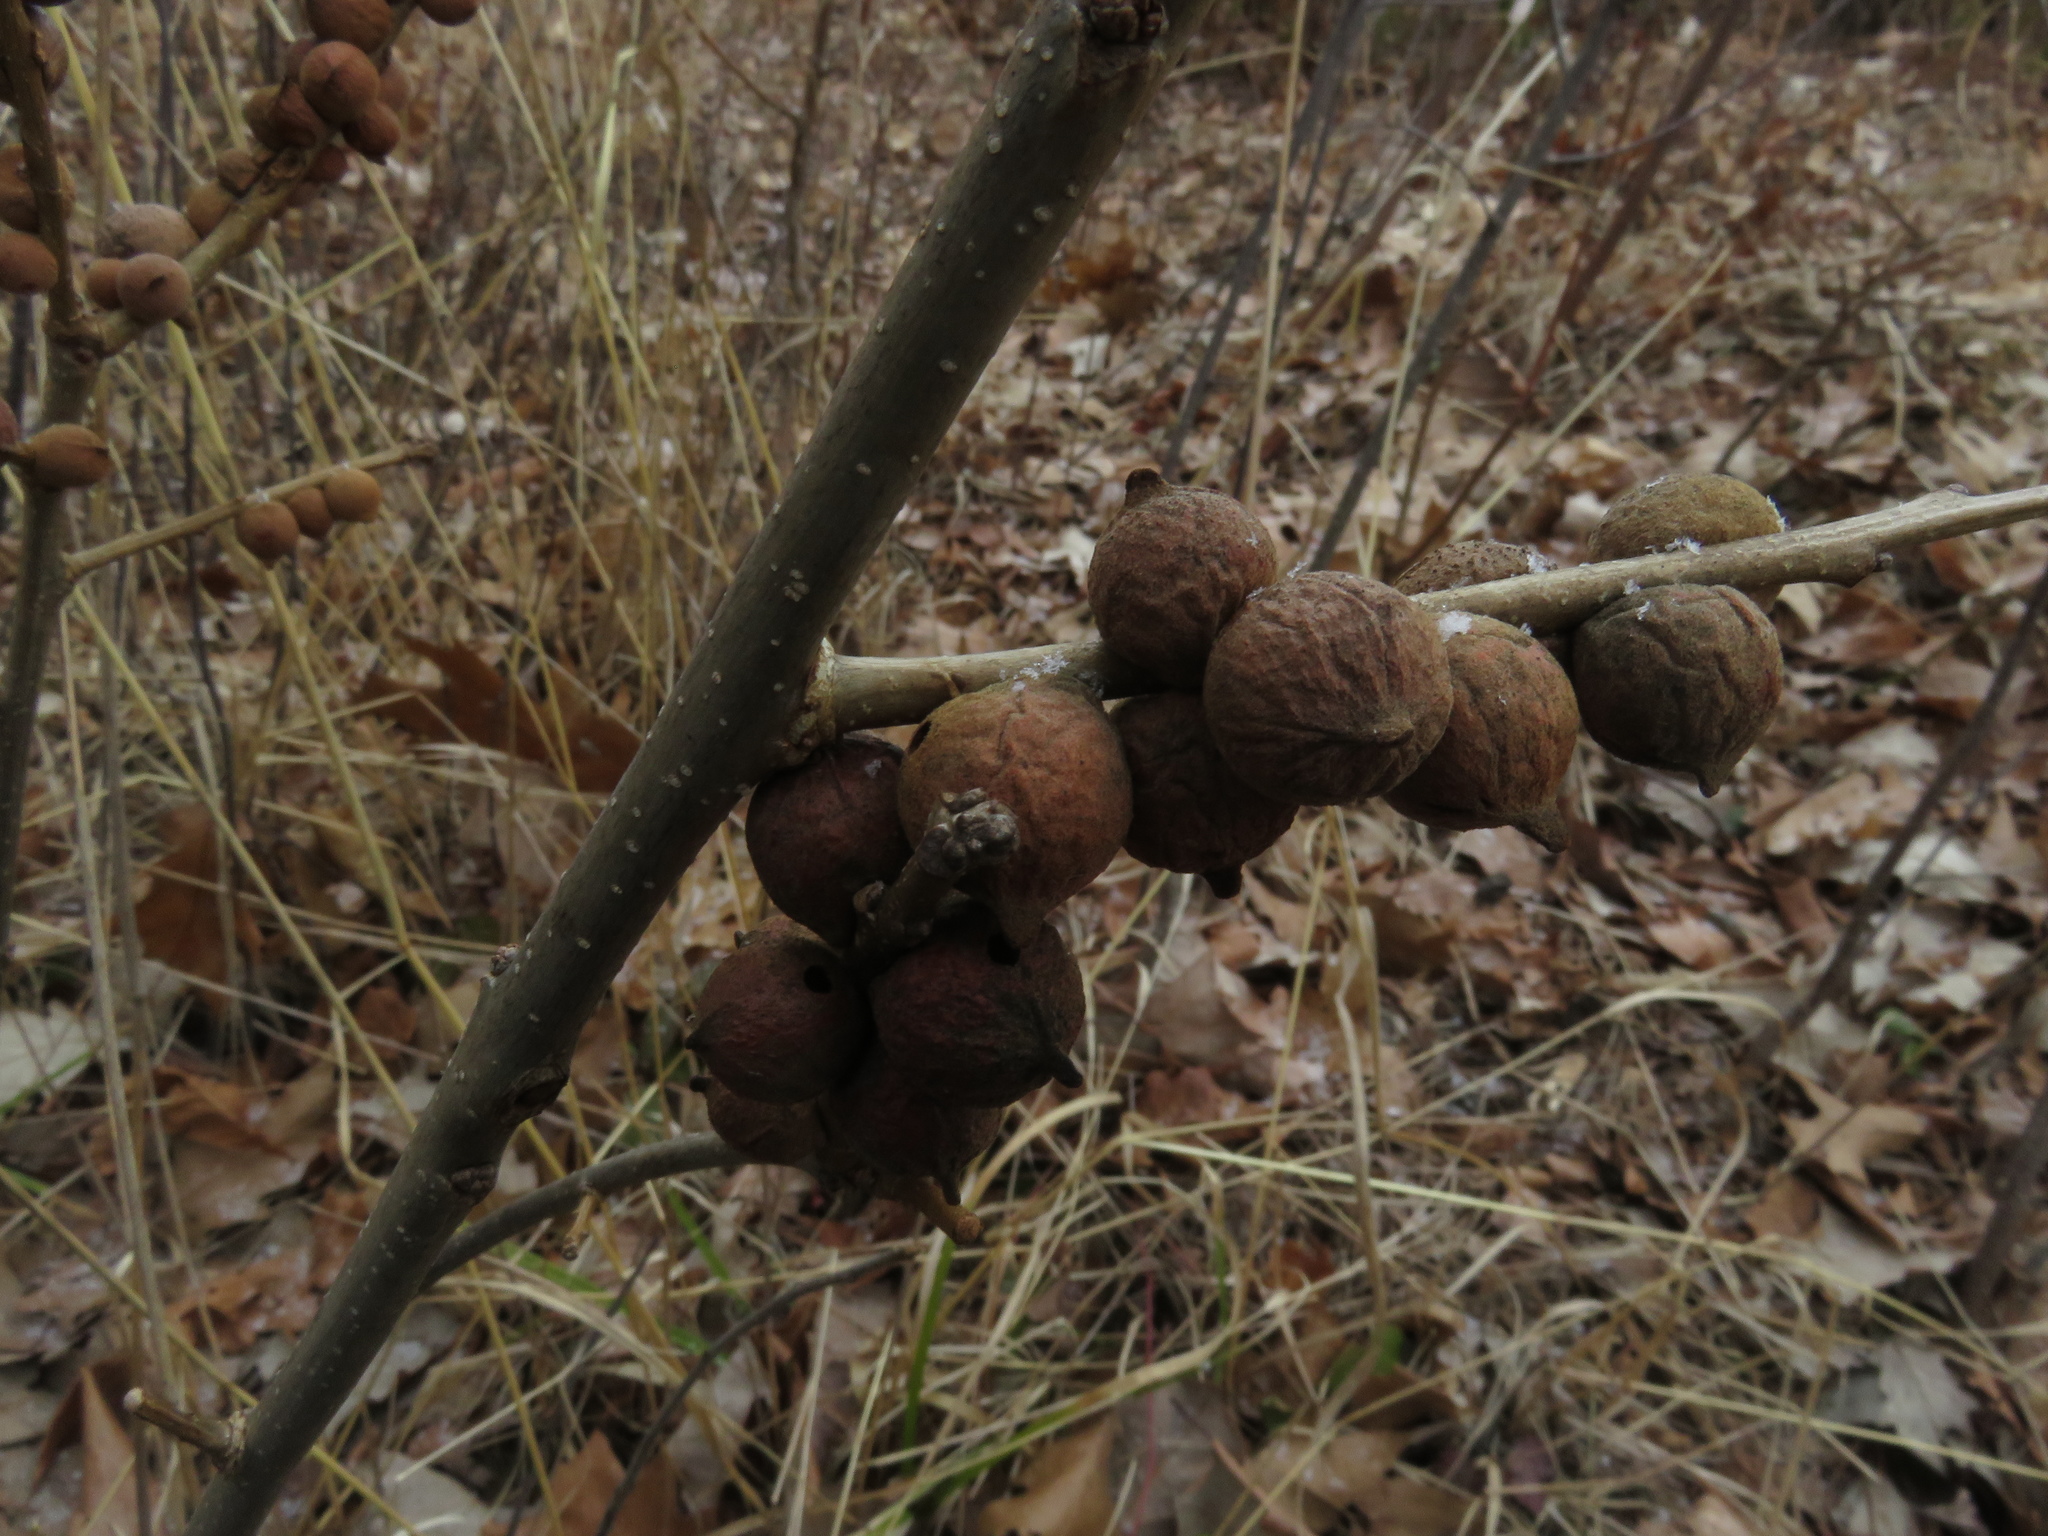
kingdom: Animalia
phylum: Arthropoda
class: Insecta
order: Hymenoptera
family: Cynipidae
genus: Disholcaspis
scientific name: Disholcaspis
